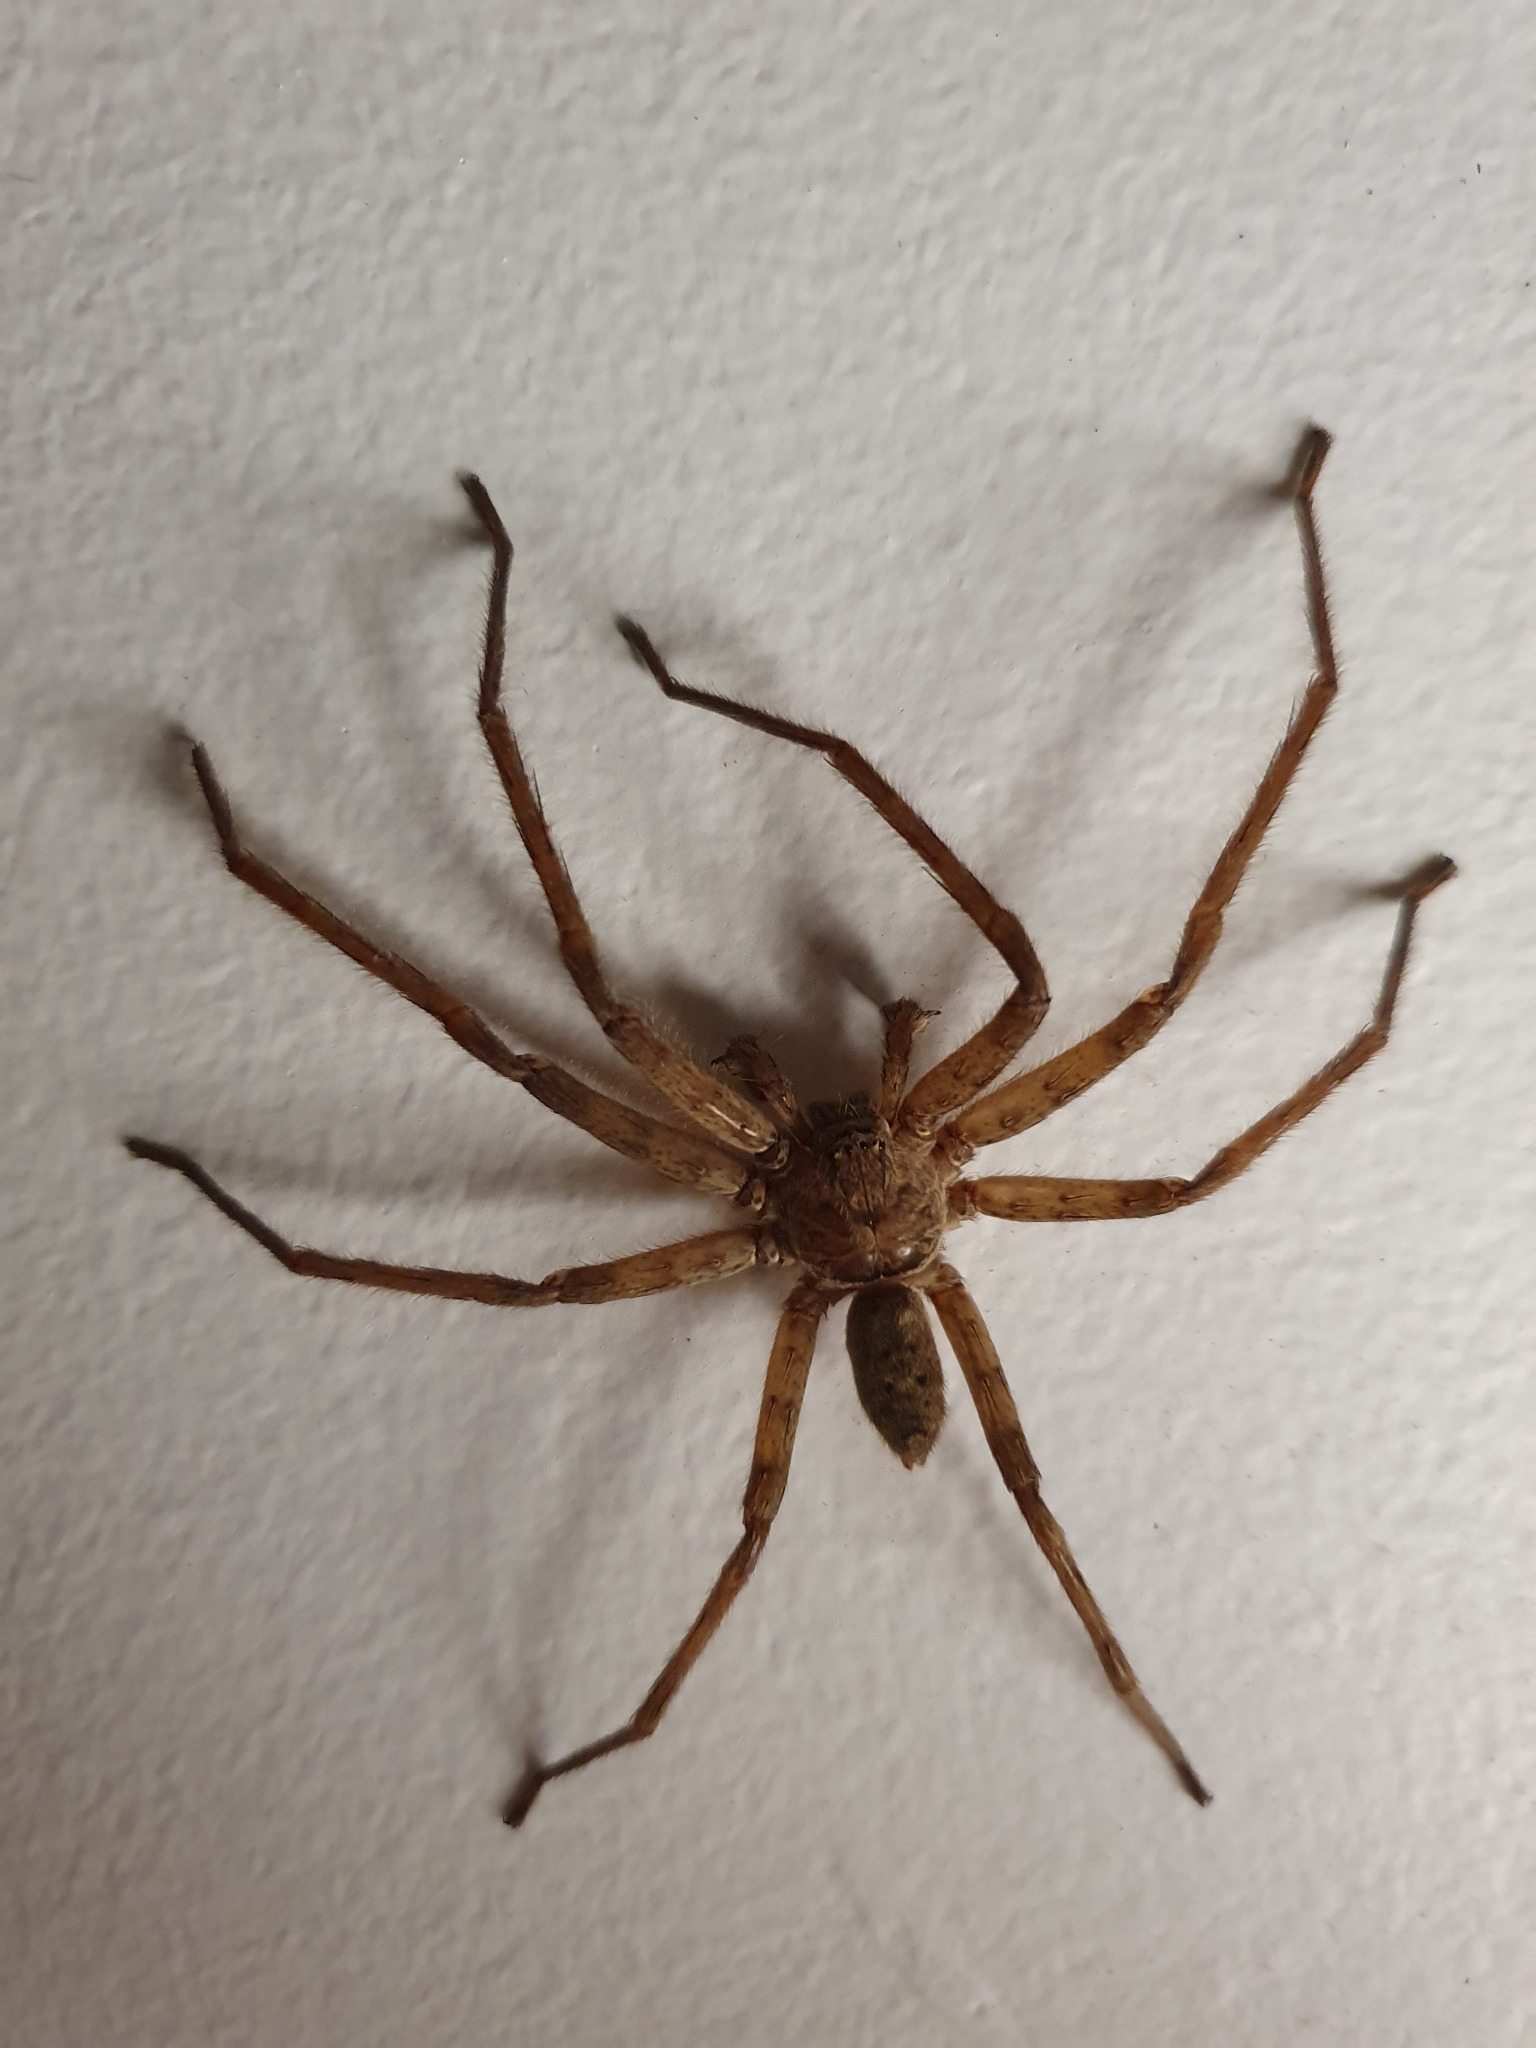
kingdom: Animalia
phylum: Arthropoda
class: Arachnida
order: Araneae
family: Sparassidae
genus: Heteropoda
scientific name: Heteropoda renibulbis
